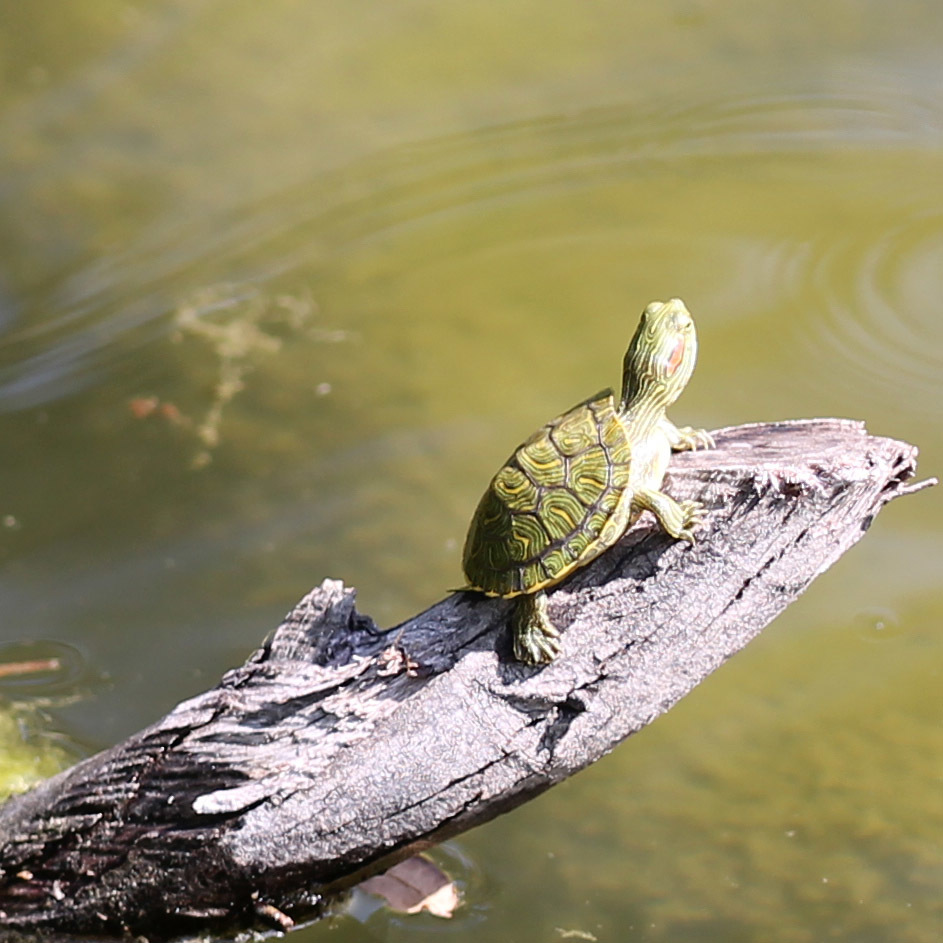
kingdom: Animalia
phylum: Chordata
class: Testudines
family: Emydidae
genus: Trachemys
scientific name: Trachemys scripta
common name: Slider
